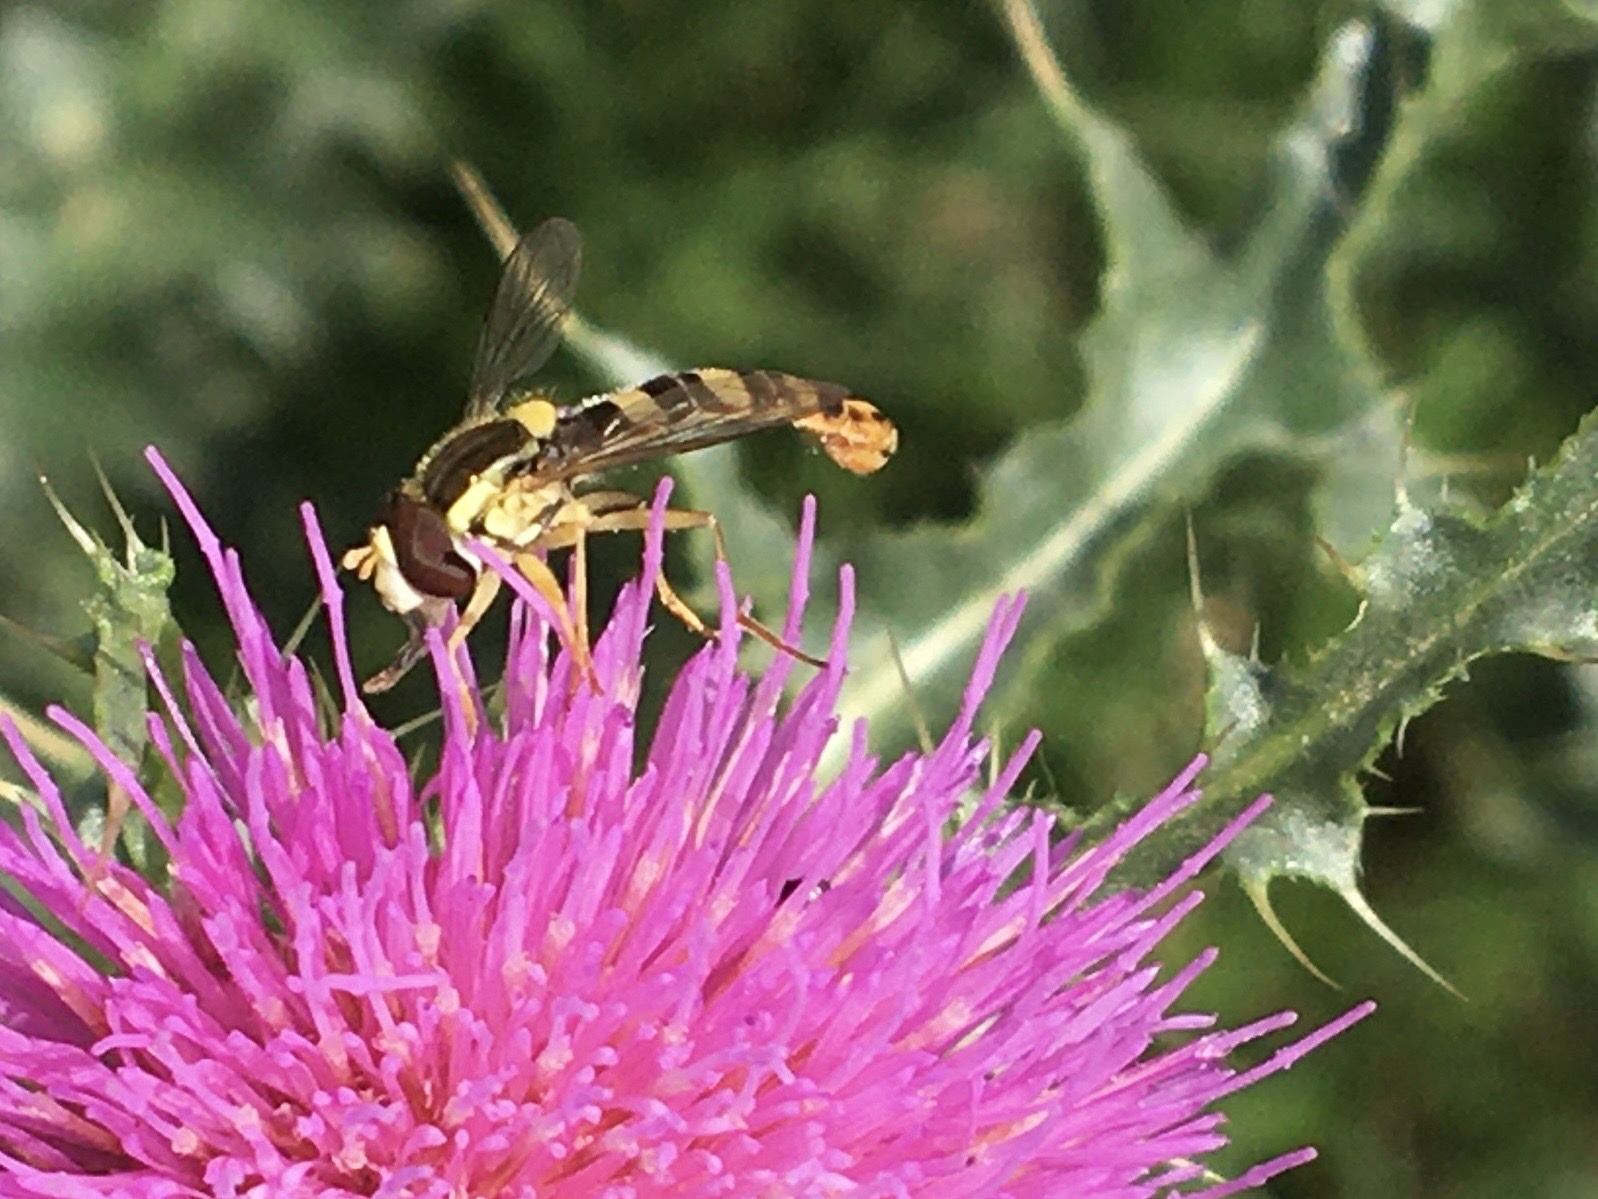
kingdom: Animalia
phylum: Arthropoda
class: Insecta
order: Diptera
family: Syrphidae
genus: Sphaerophoria
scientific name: Sphaerophoria scripta
